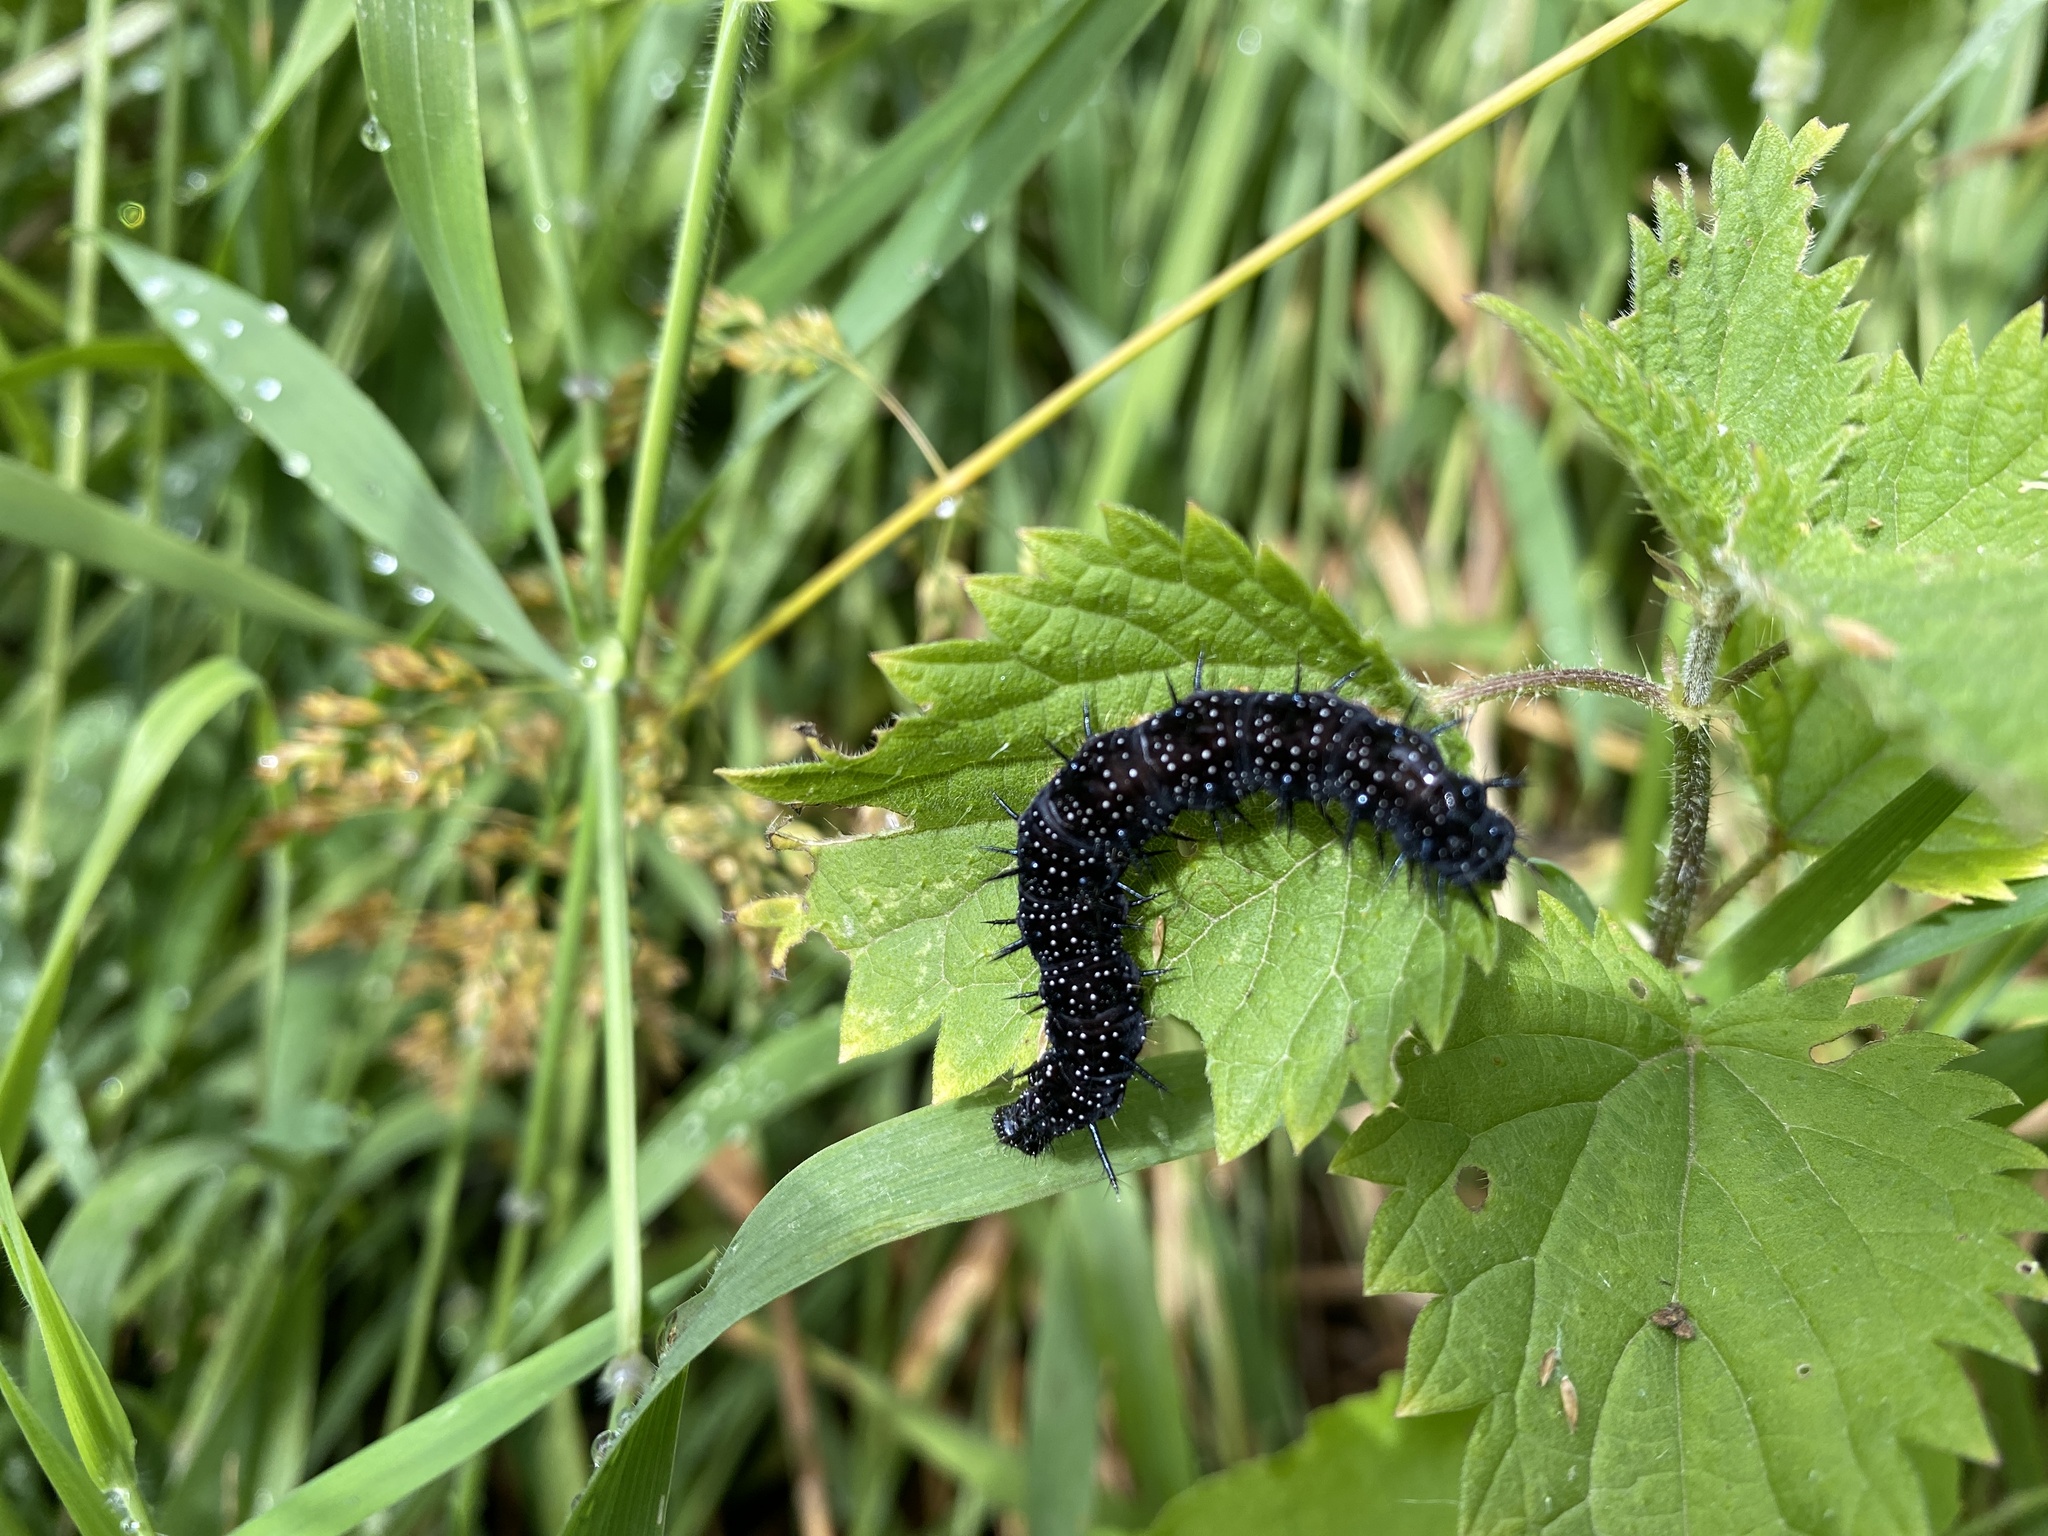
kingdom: Animalia
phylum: Arthropoda
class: Insecta
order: Lepidoptera
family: Nymphalidae
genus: Aglais
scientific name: Aglais io
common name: Peacock
